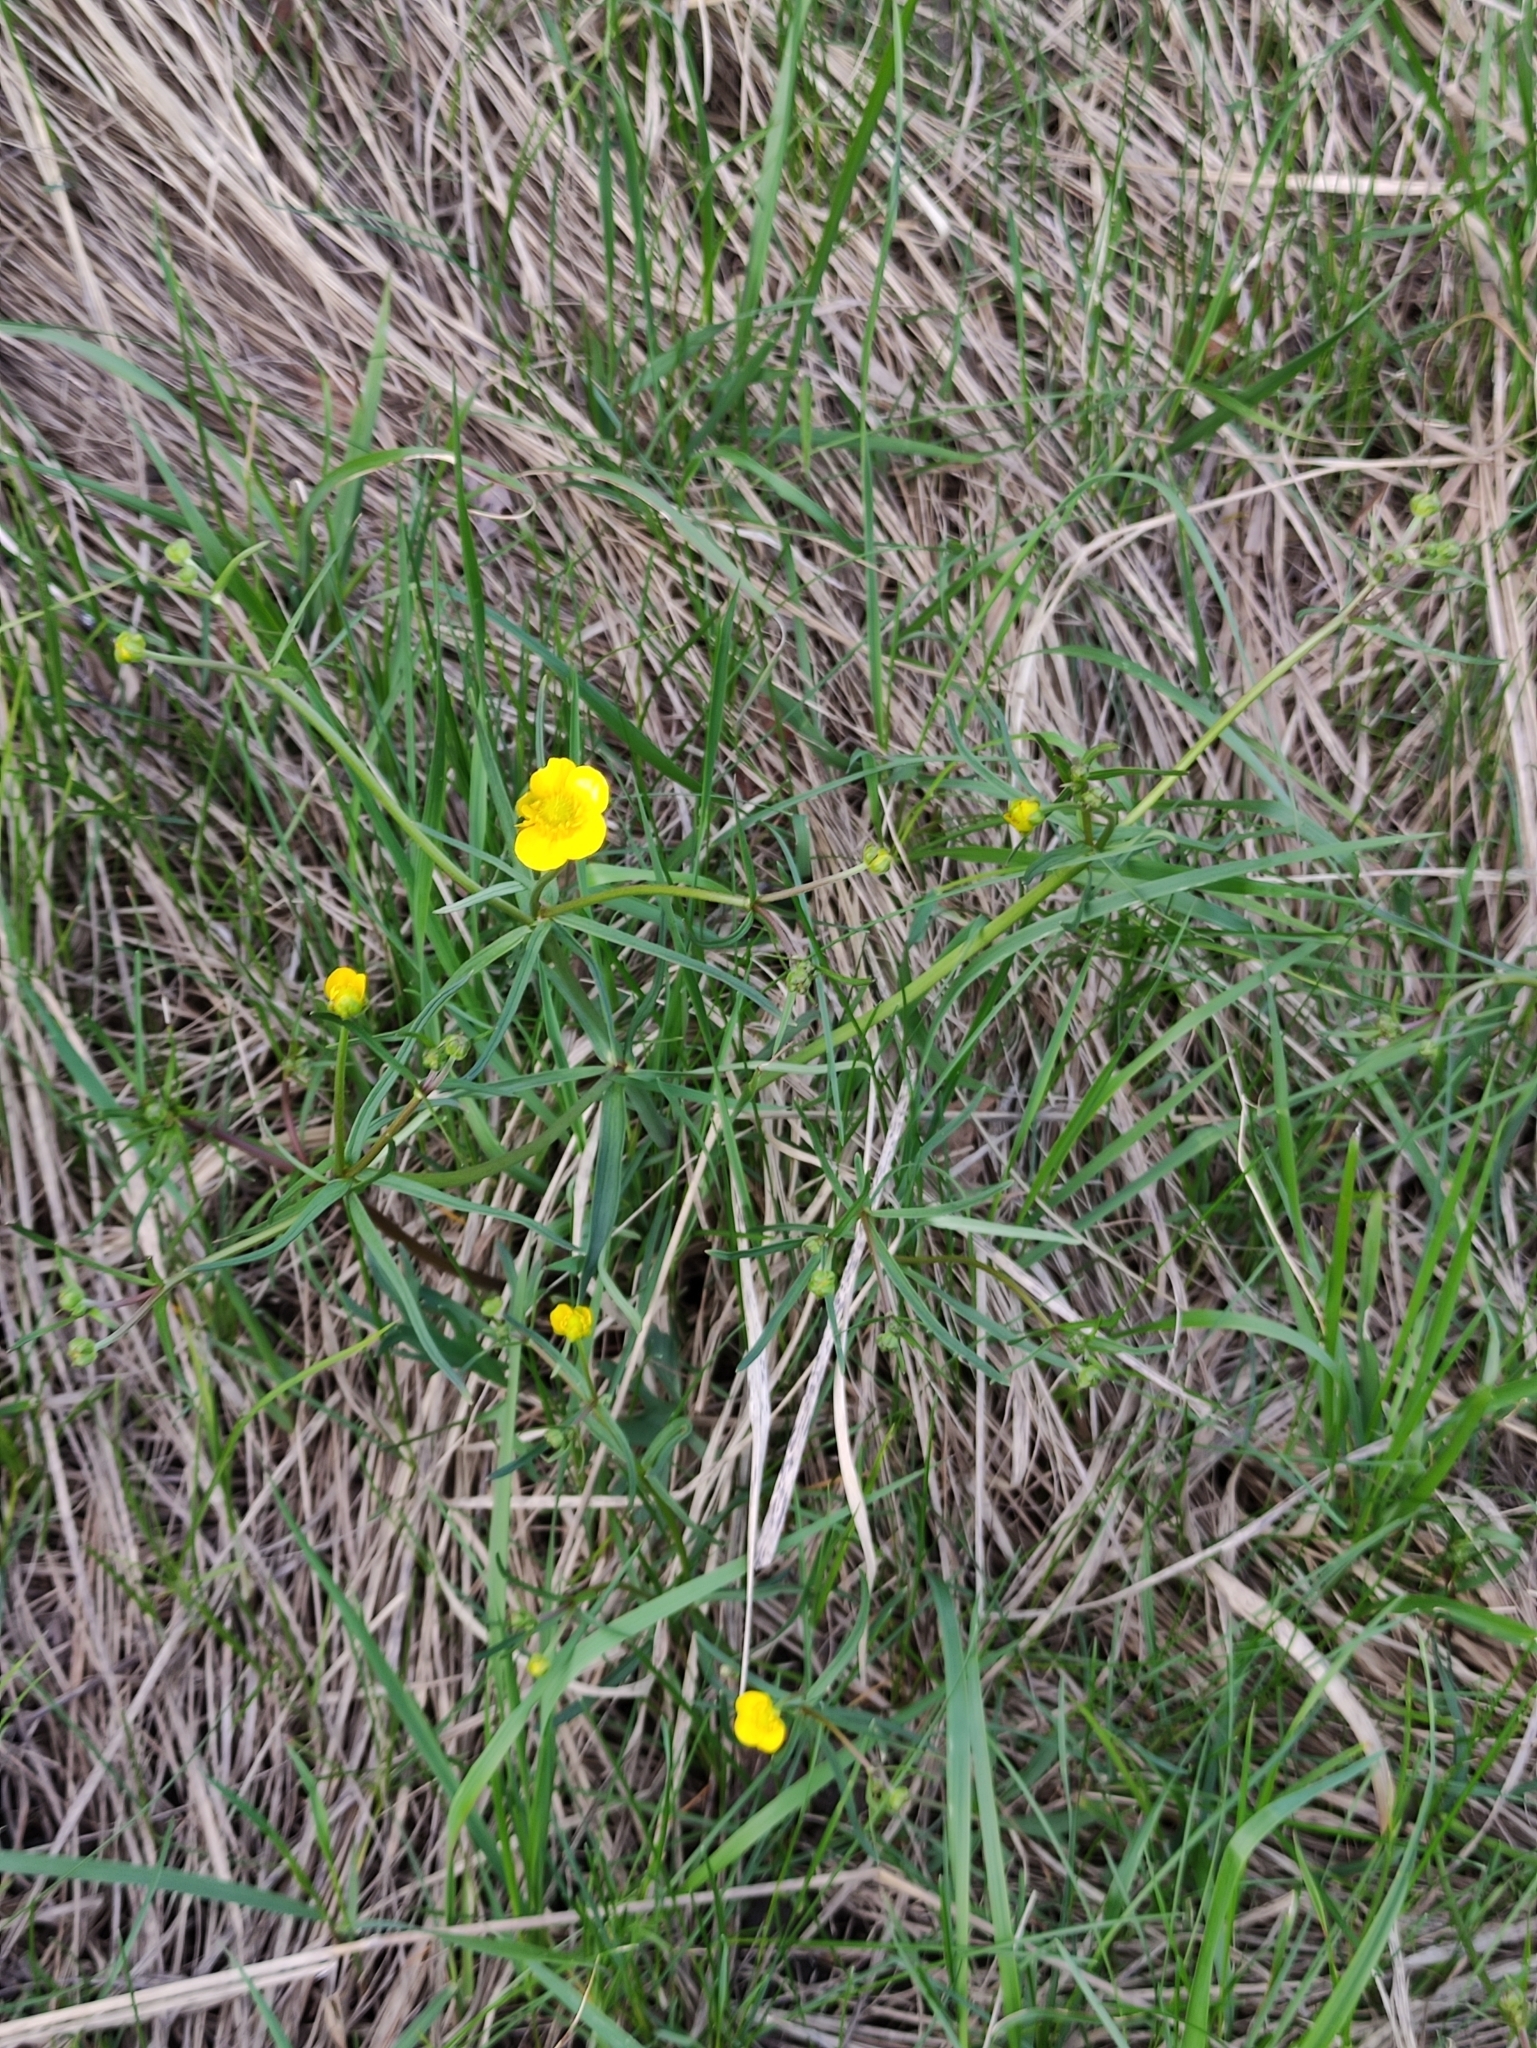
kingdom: Plantae
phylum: Tracheophyta
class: Magnoliopsida
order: Ranunculales
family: Ranunculaceae
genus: Ranunculus
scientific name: Ranunculus auricomus
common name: Goldilocks buttercup
